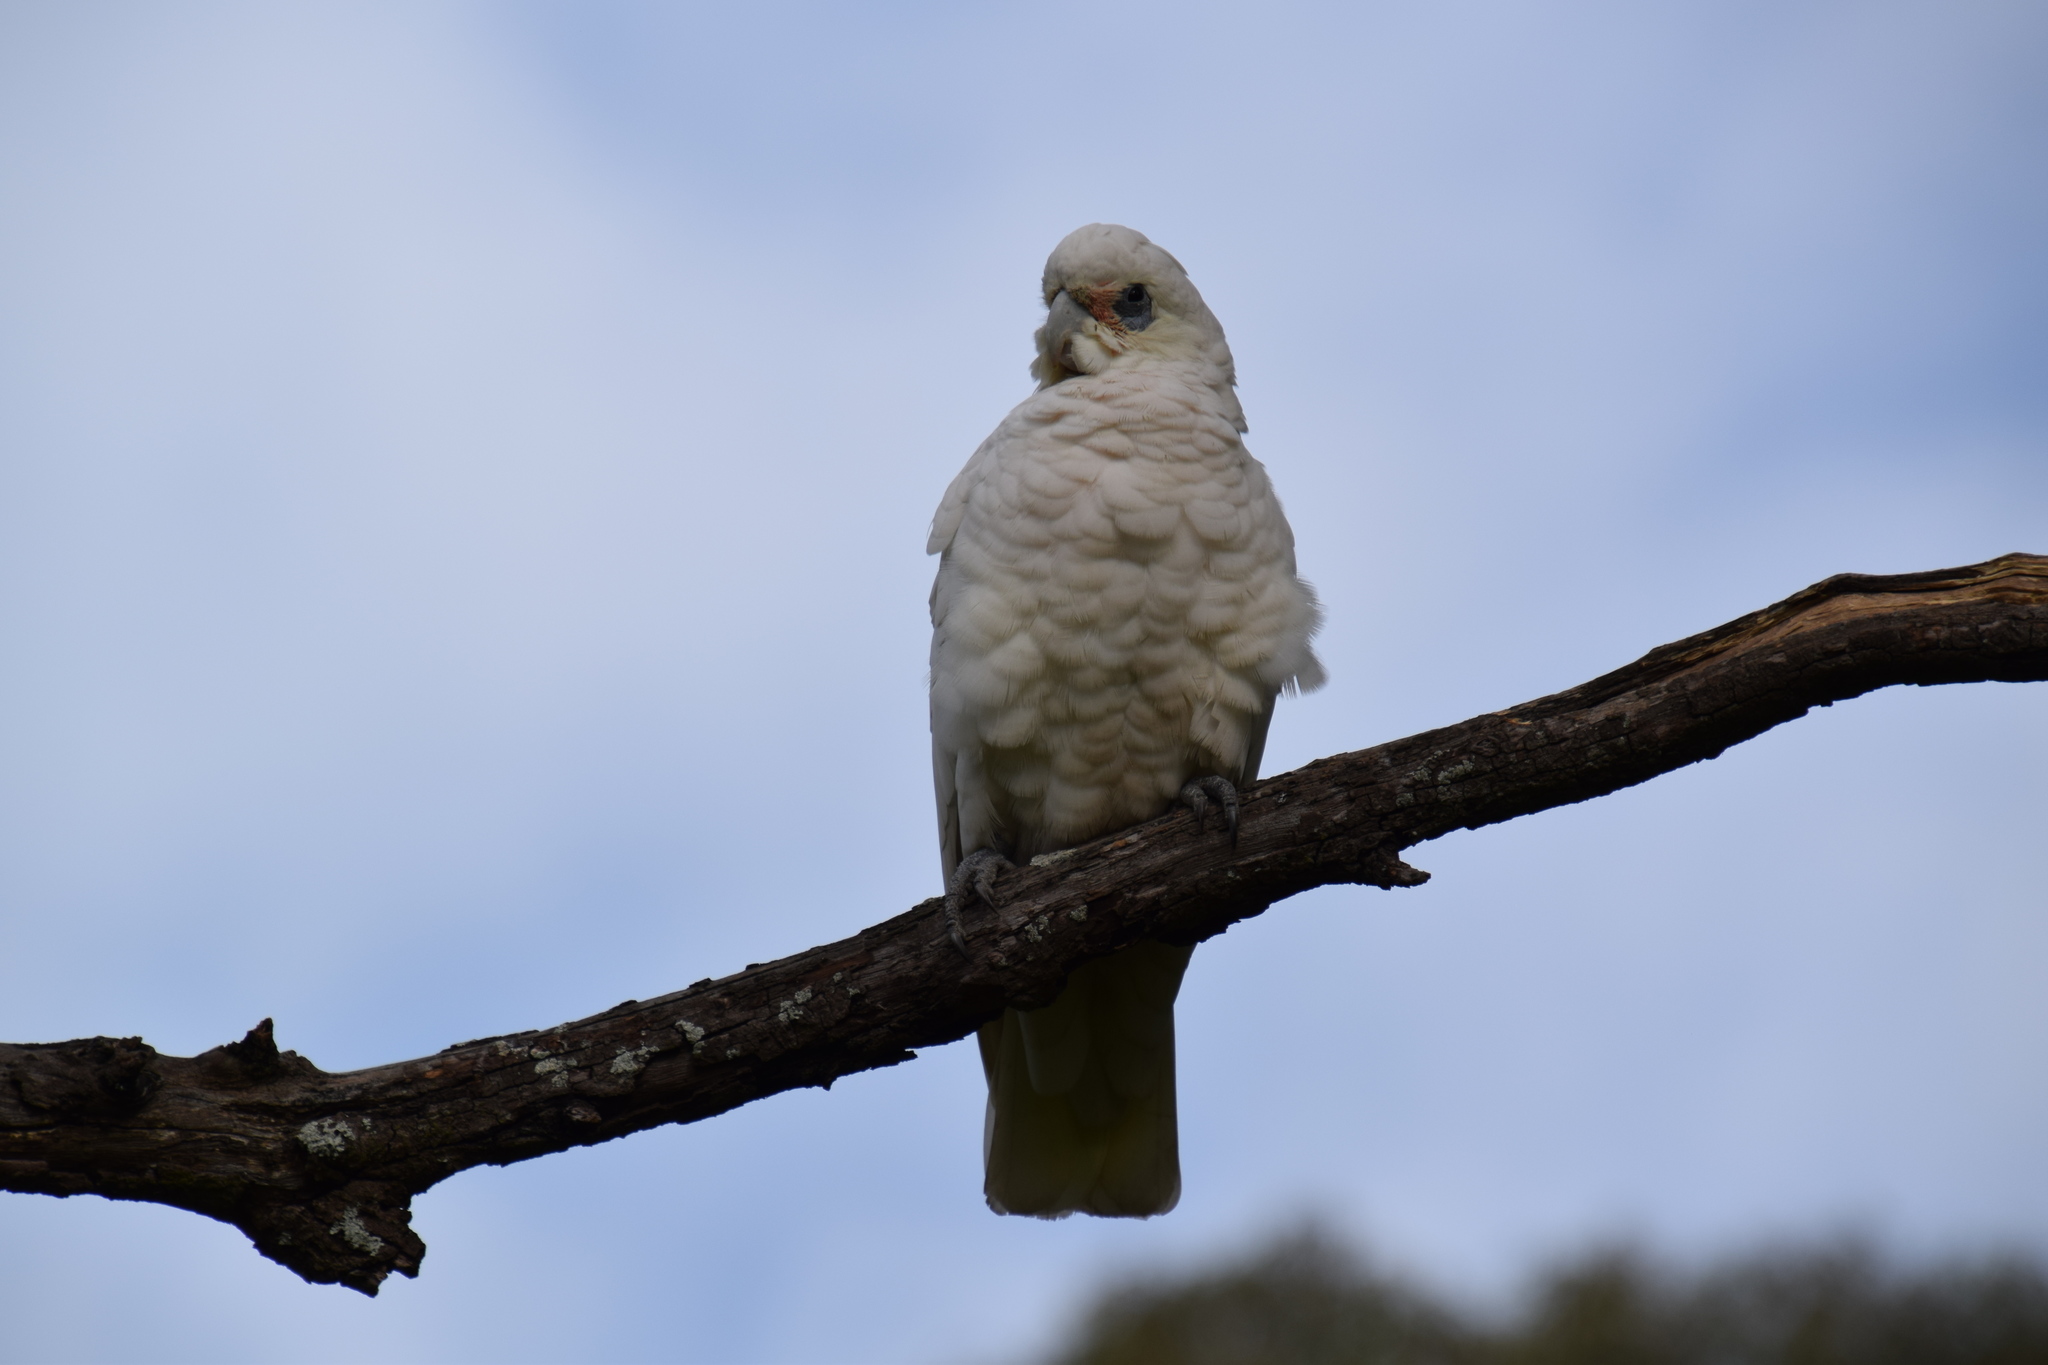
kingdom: Animalia
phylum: Chordata
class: Aves
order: Psittaciformes
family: Psittacidae
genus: Cacatua
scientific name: Cacatua sanguinea
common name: Little corella
